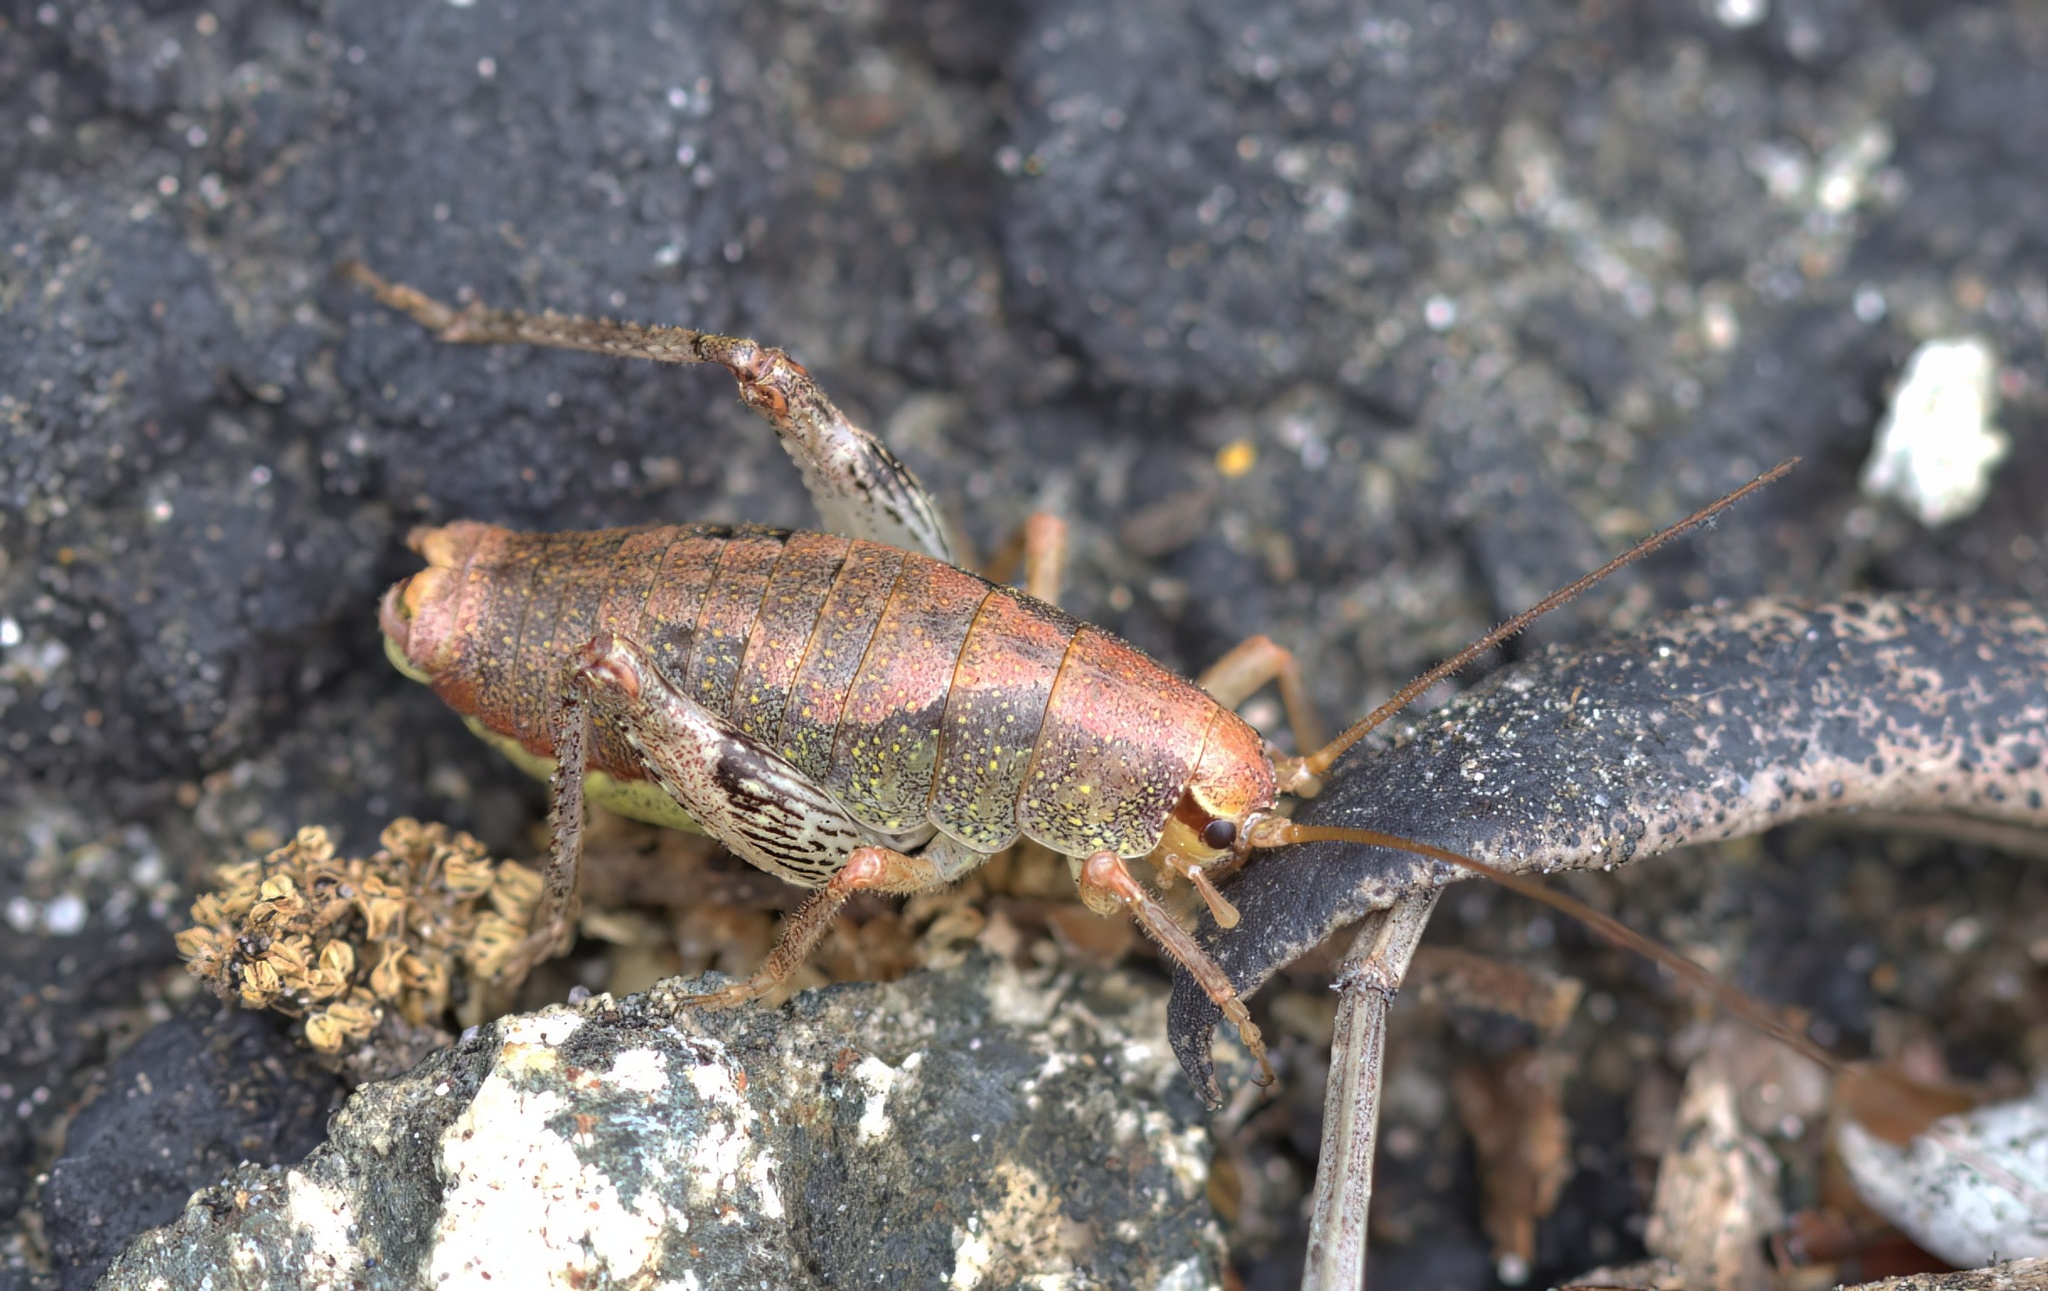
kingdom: Animalia
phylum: Arthropoda
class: Insecta
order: Orthoptera
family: Rhaphidophoridae
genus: Gammarotettix
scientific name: Gammarotettix genitalis
